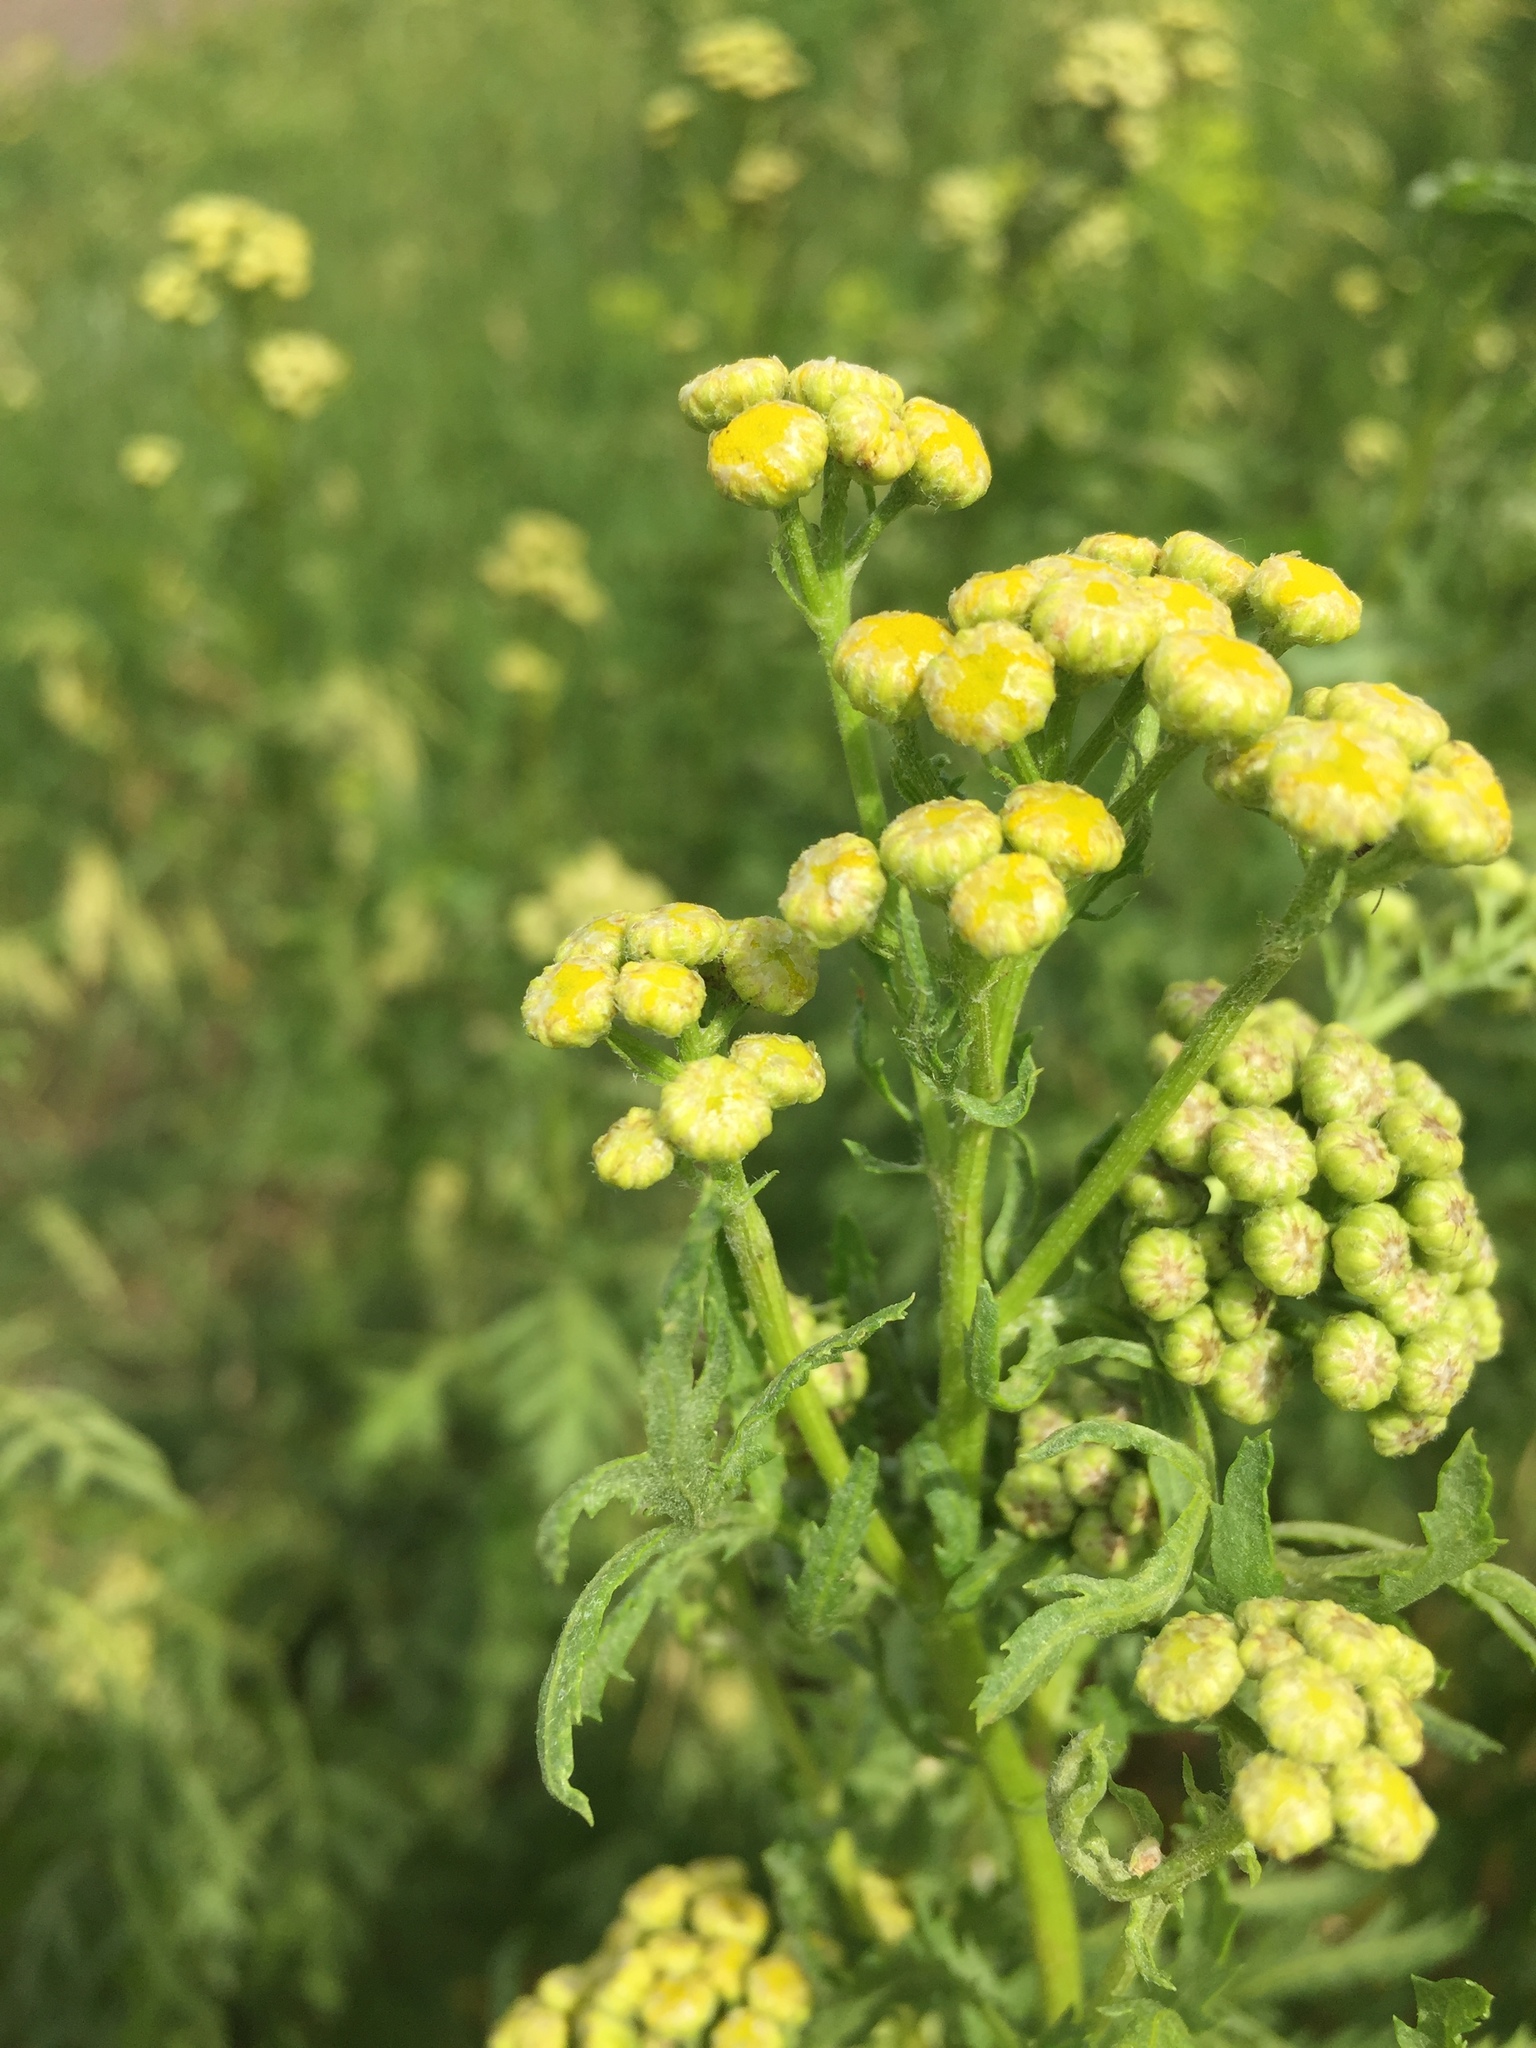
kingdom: Plantae
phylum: Tracheophyta
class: Magnoliopsida
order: Asterales
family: Asteraceae
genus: Tanacetum
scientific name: Tanacetum vulgare
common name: Common tansy
